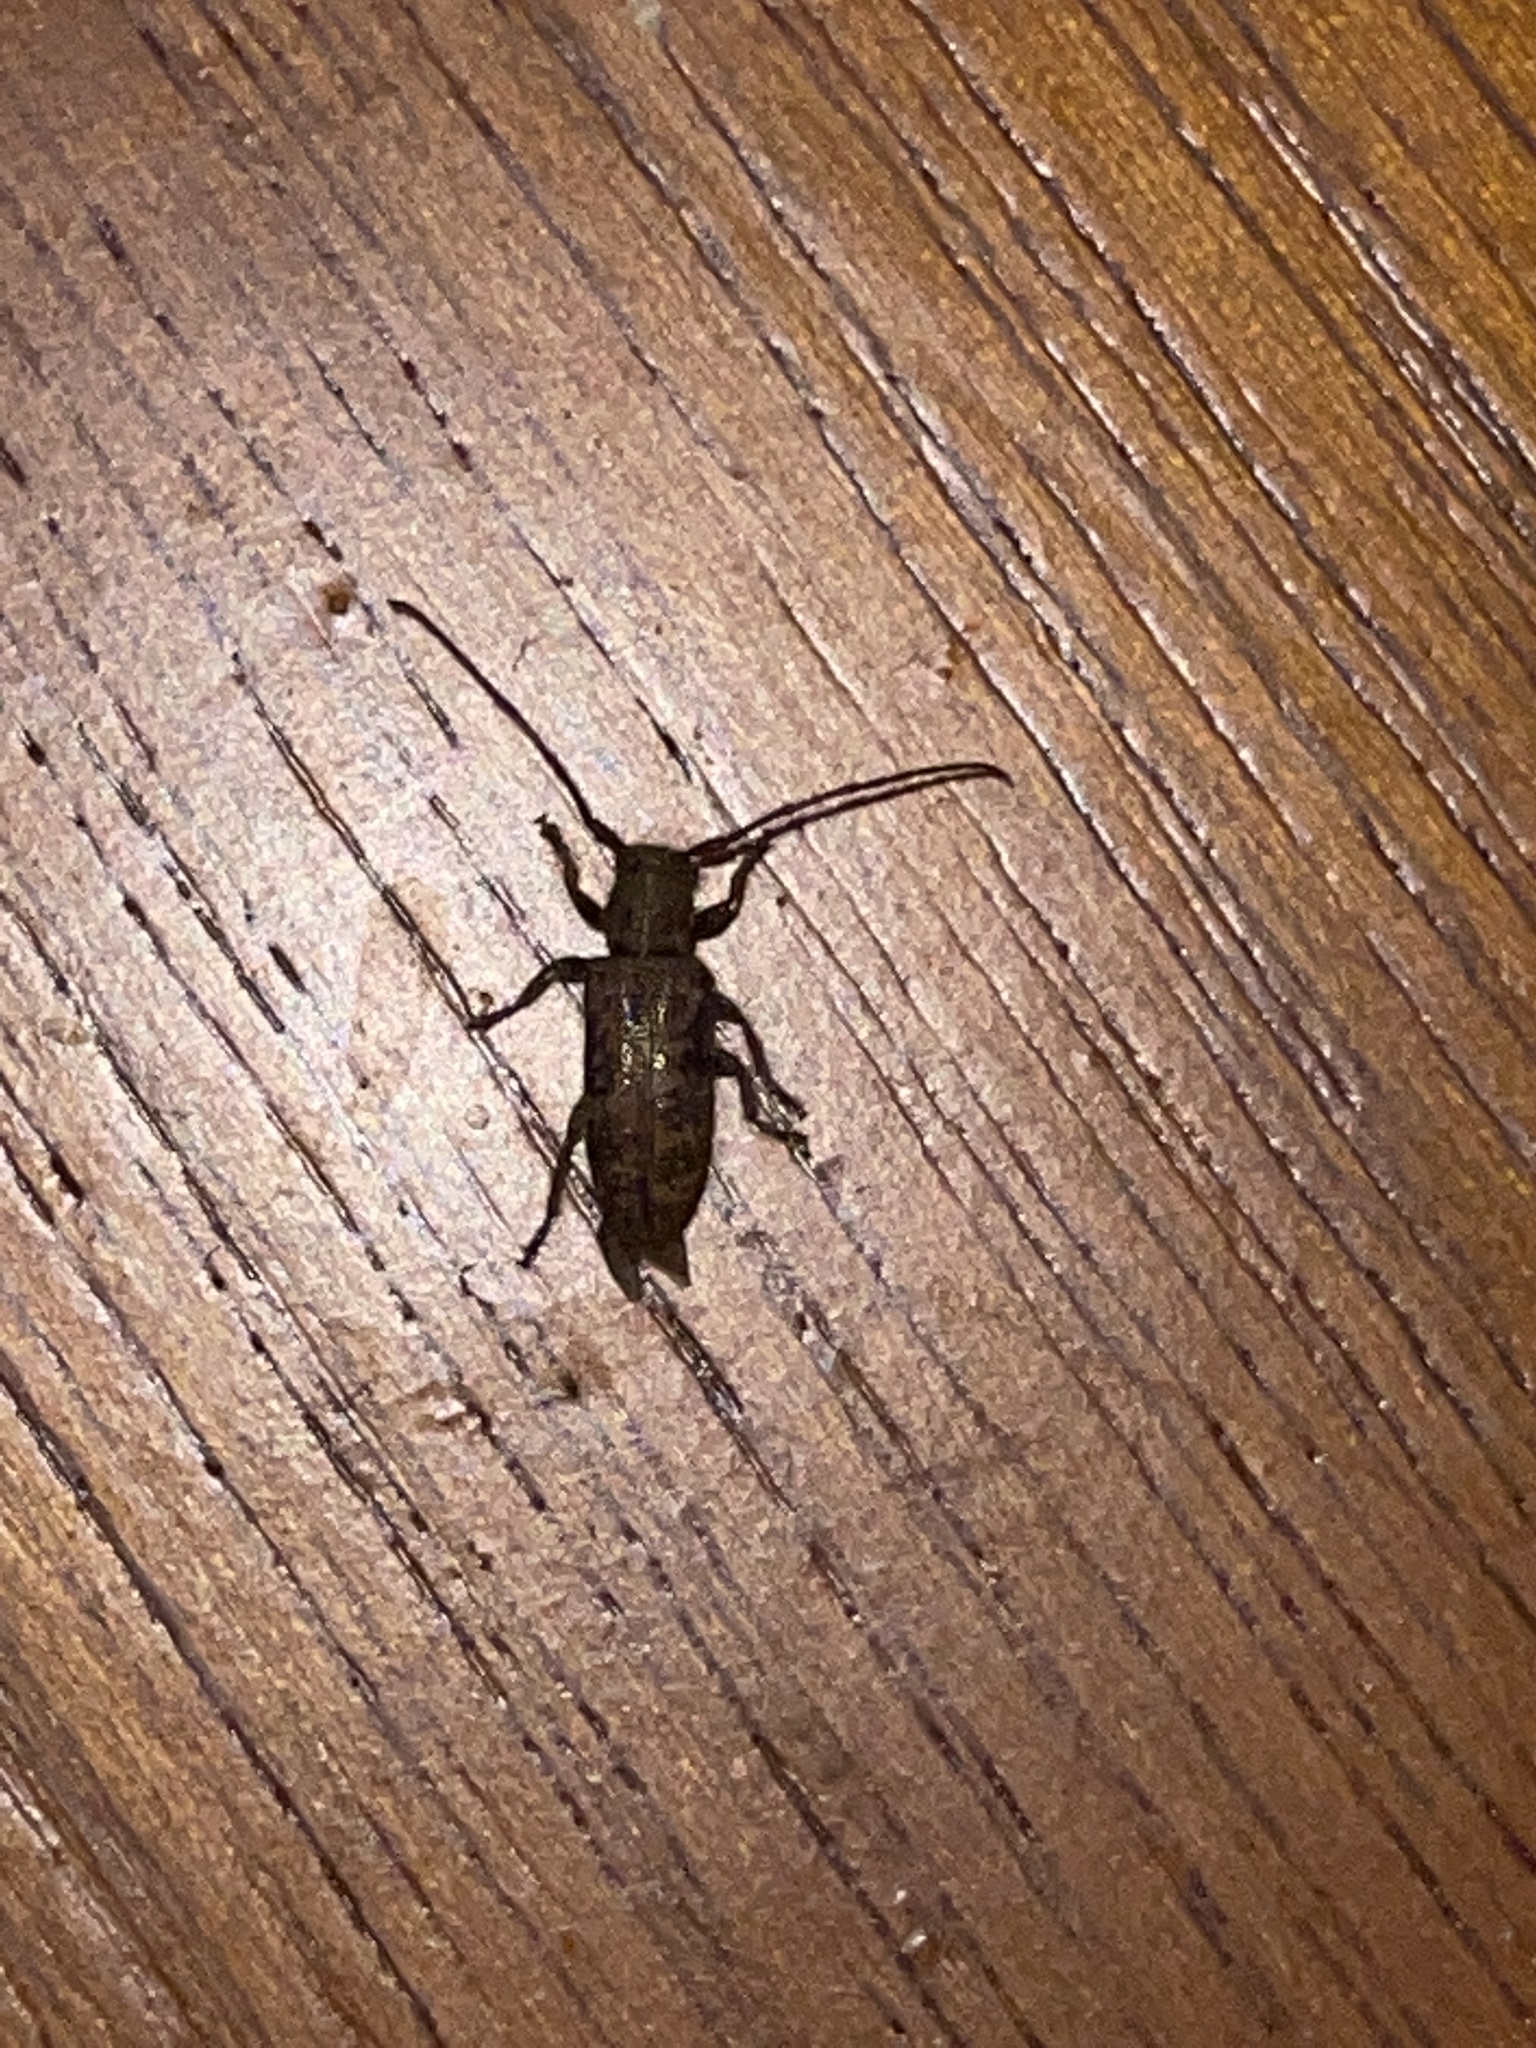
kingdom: Animalia
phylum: Arthropoda
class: Insecta
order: Coleoptera
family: Cerambycidae
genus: Eupogonius
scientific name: Eupogonius pauper
